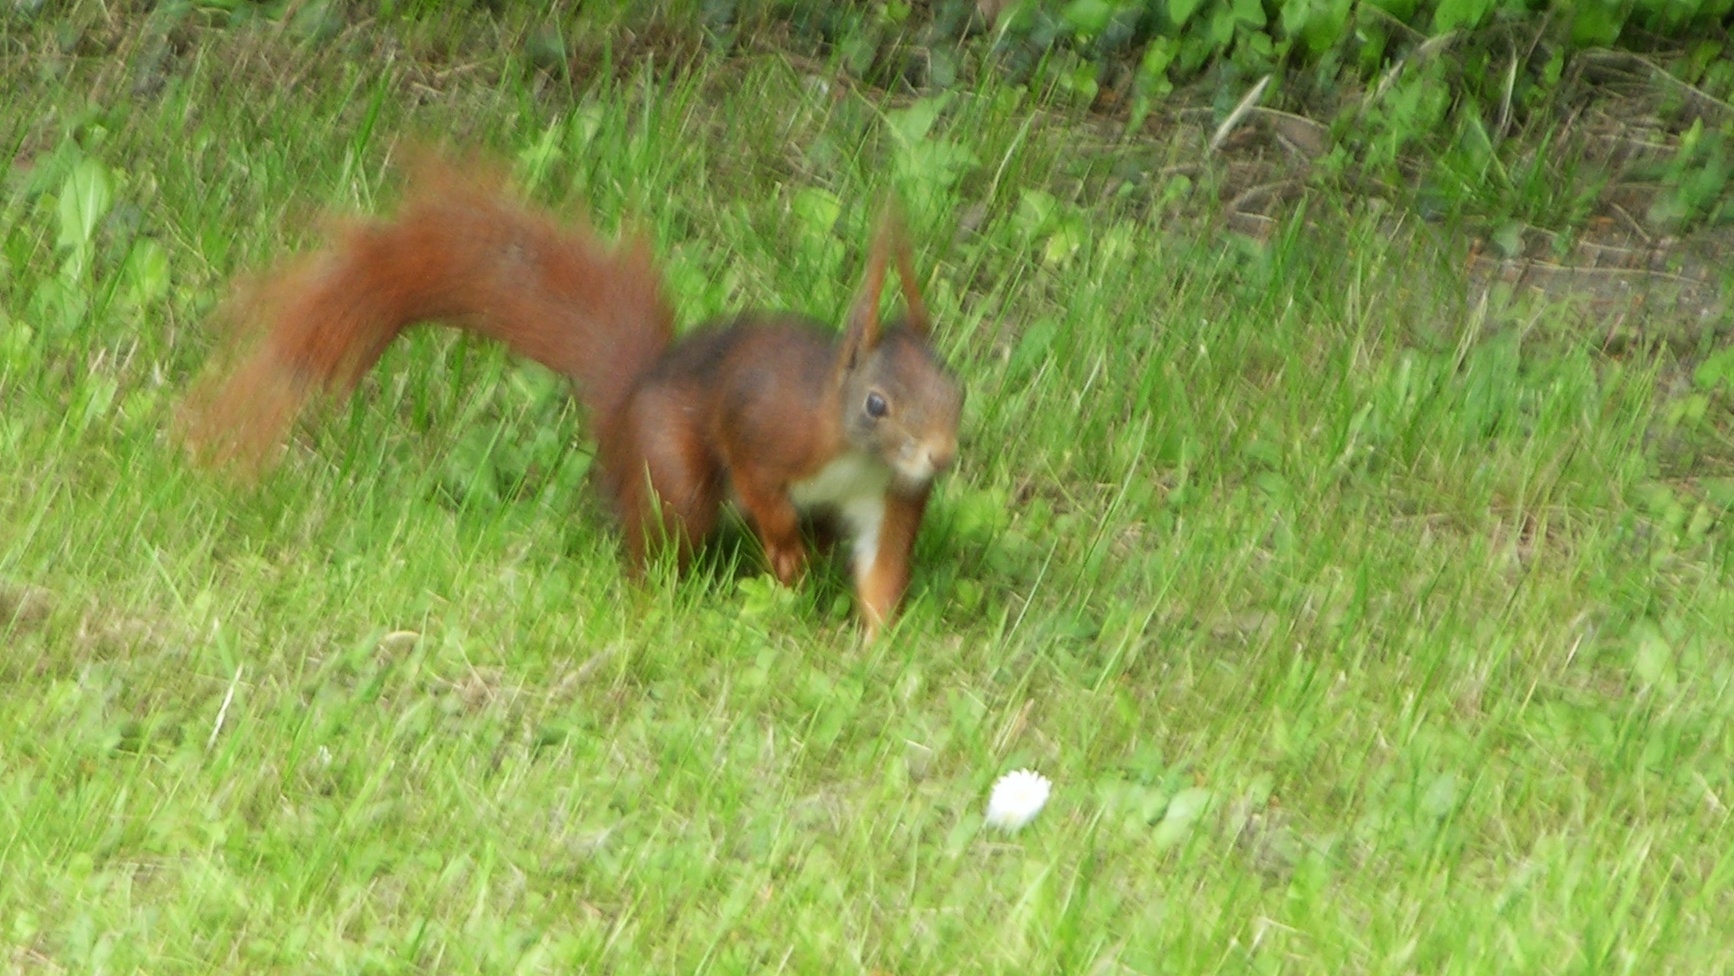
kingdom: Animalia
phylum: Chordata
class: Mammalia
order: Rodentia
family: Sciuridae
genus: Sciurus
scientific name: Sciurus vulgaris
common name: Eurasian red squirrel
